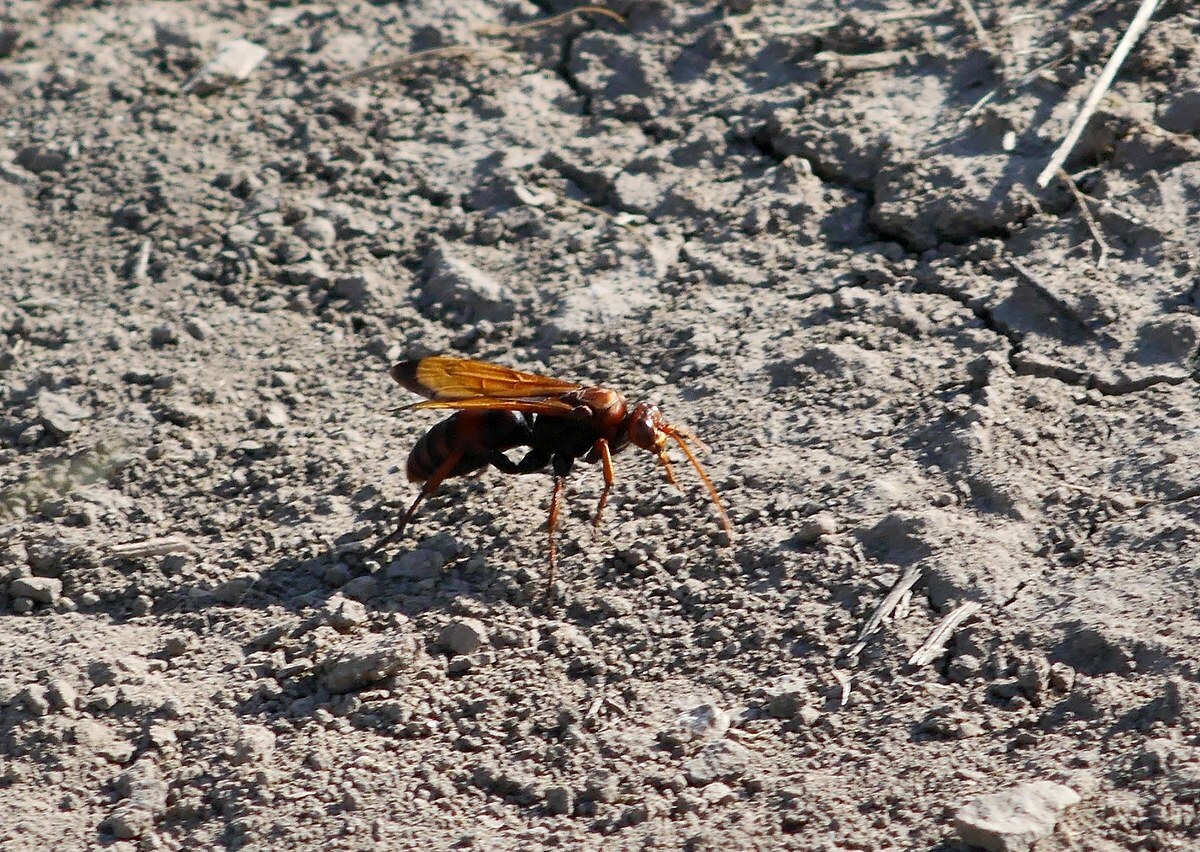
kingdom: Animalia
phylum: Arthropoda
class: Insecta
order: Hymenoptera
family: Pompilidae
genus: Cryptocheilus
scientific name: Cryptocheilus rubellus
